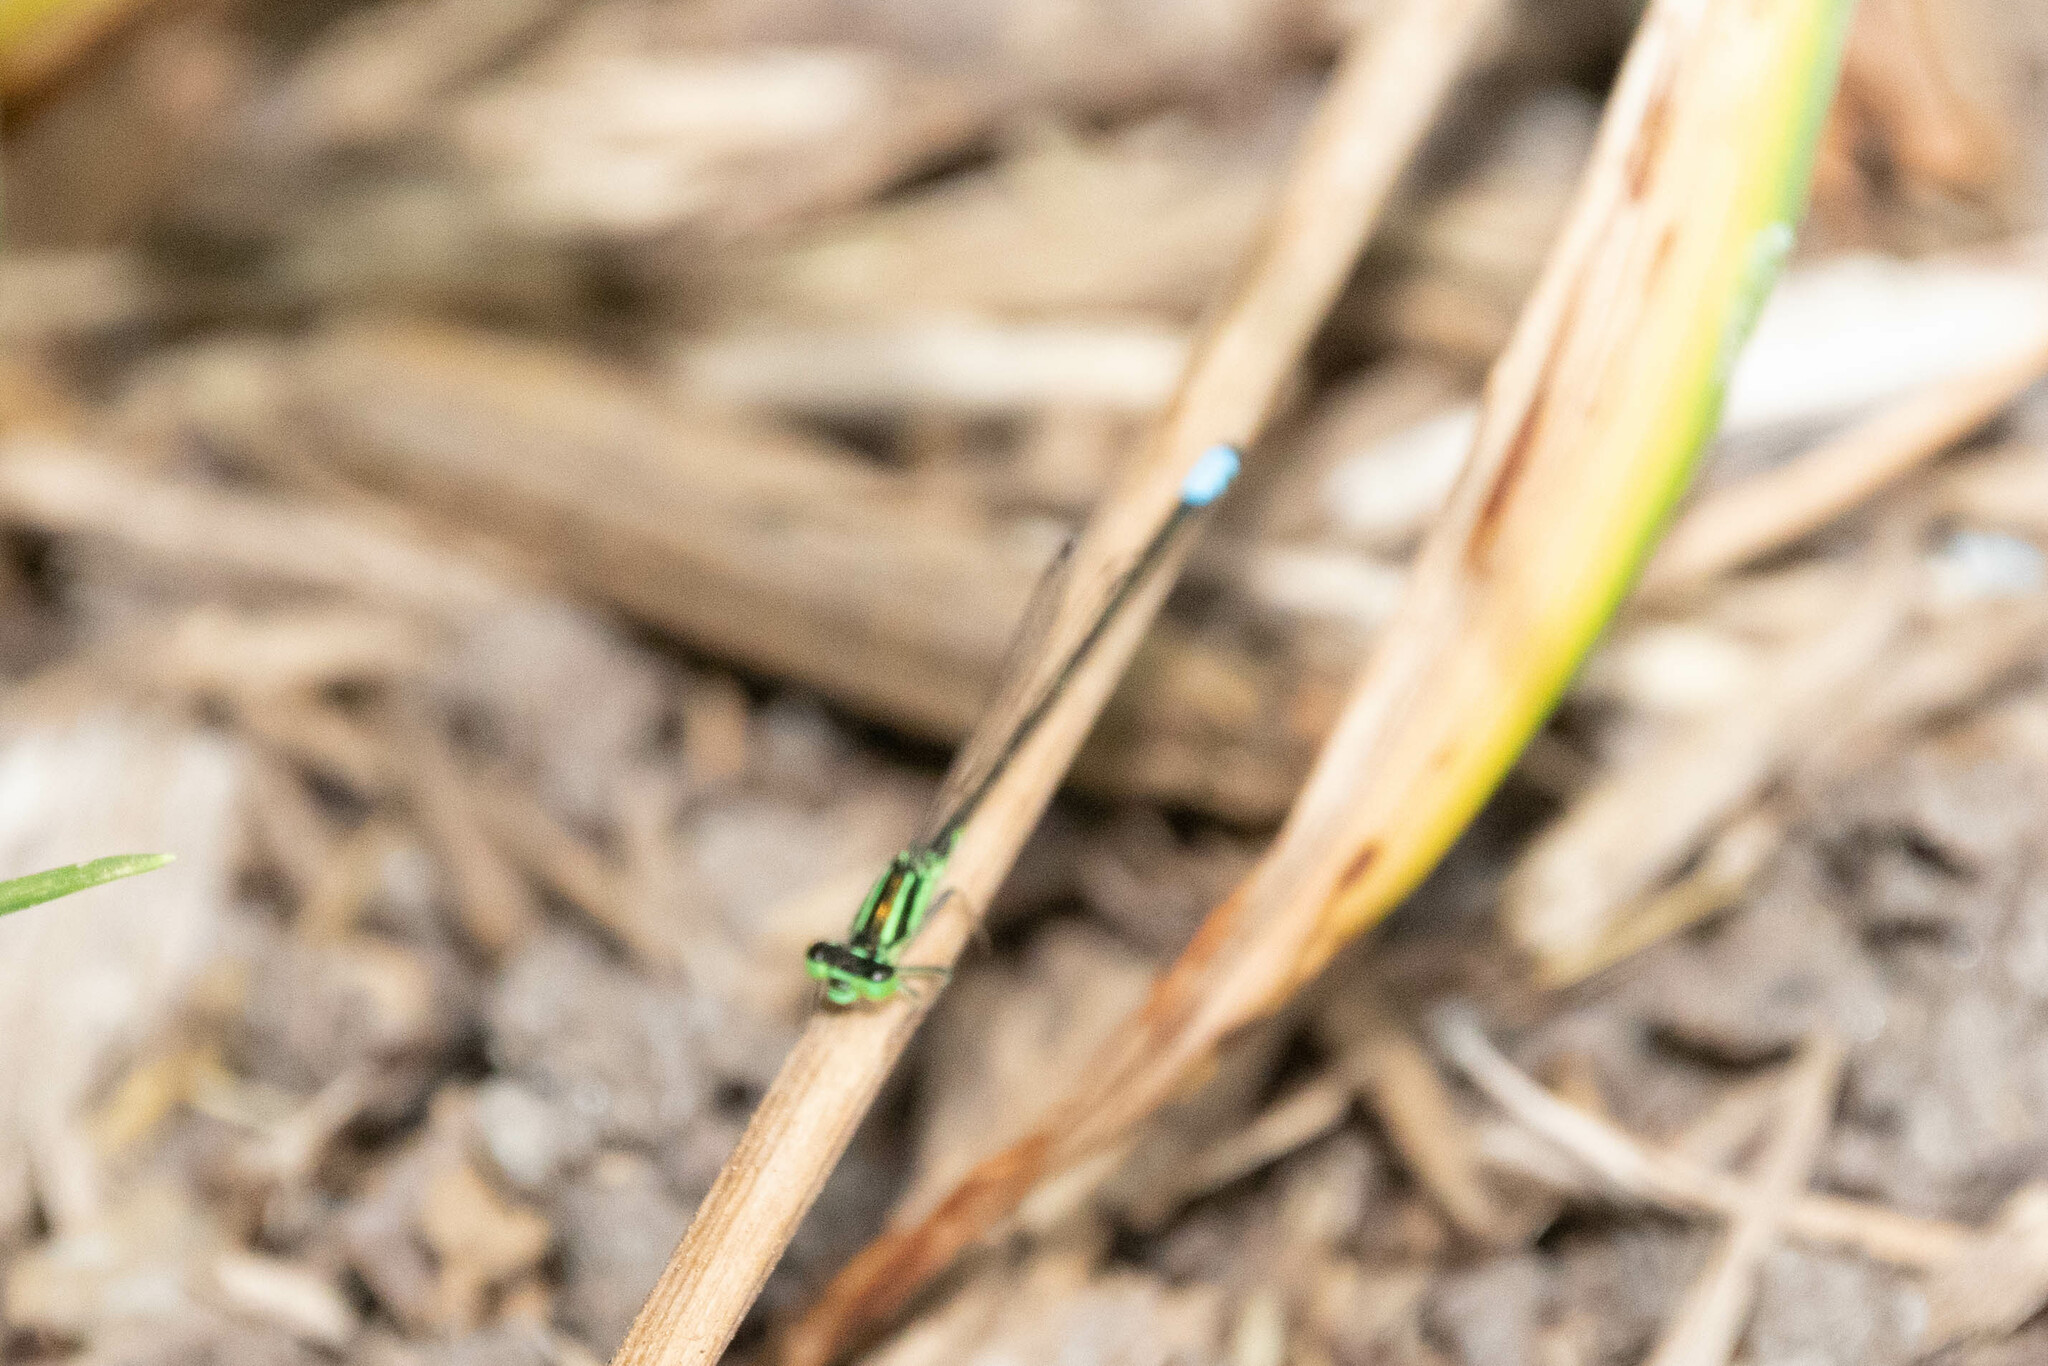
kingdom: Animalia
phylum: Arthropoda
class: Insecta
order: Odonata
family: Coenagrionidae
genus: Ischnura
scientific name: Ischnura verticalis
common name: Eastern forktail
